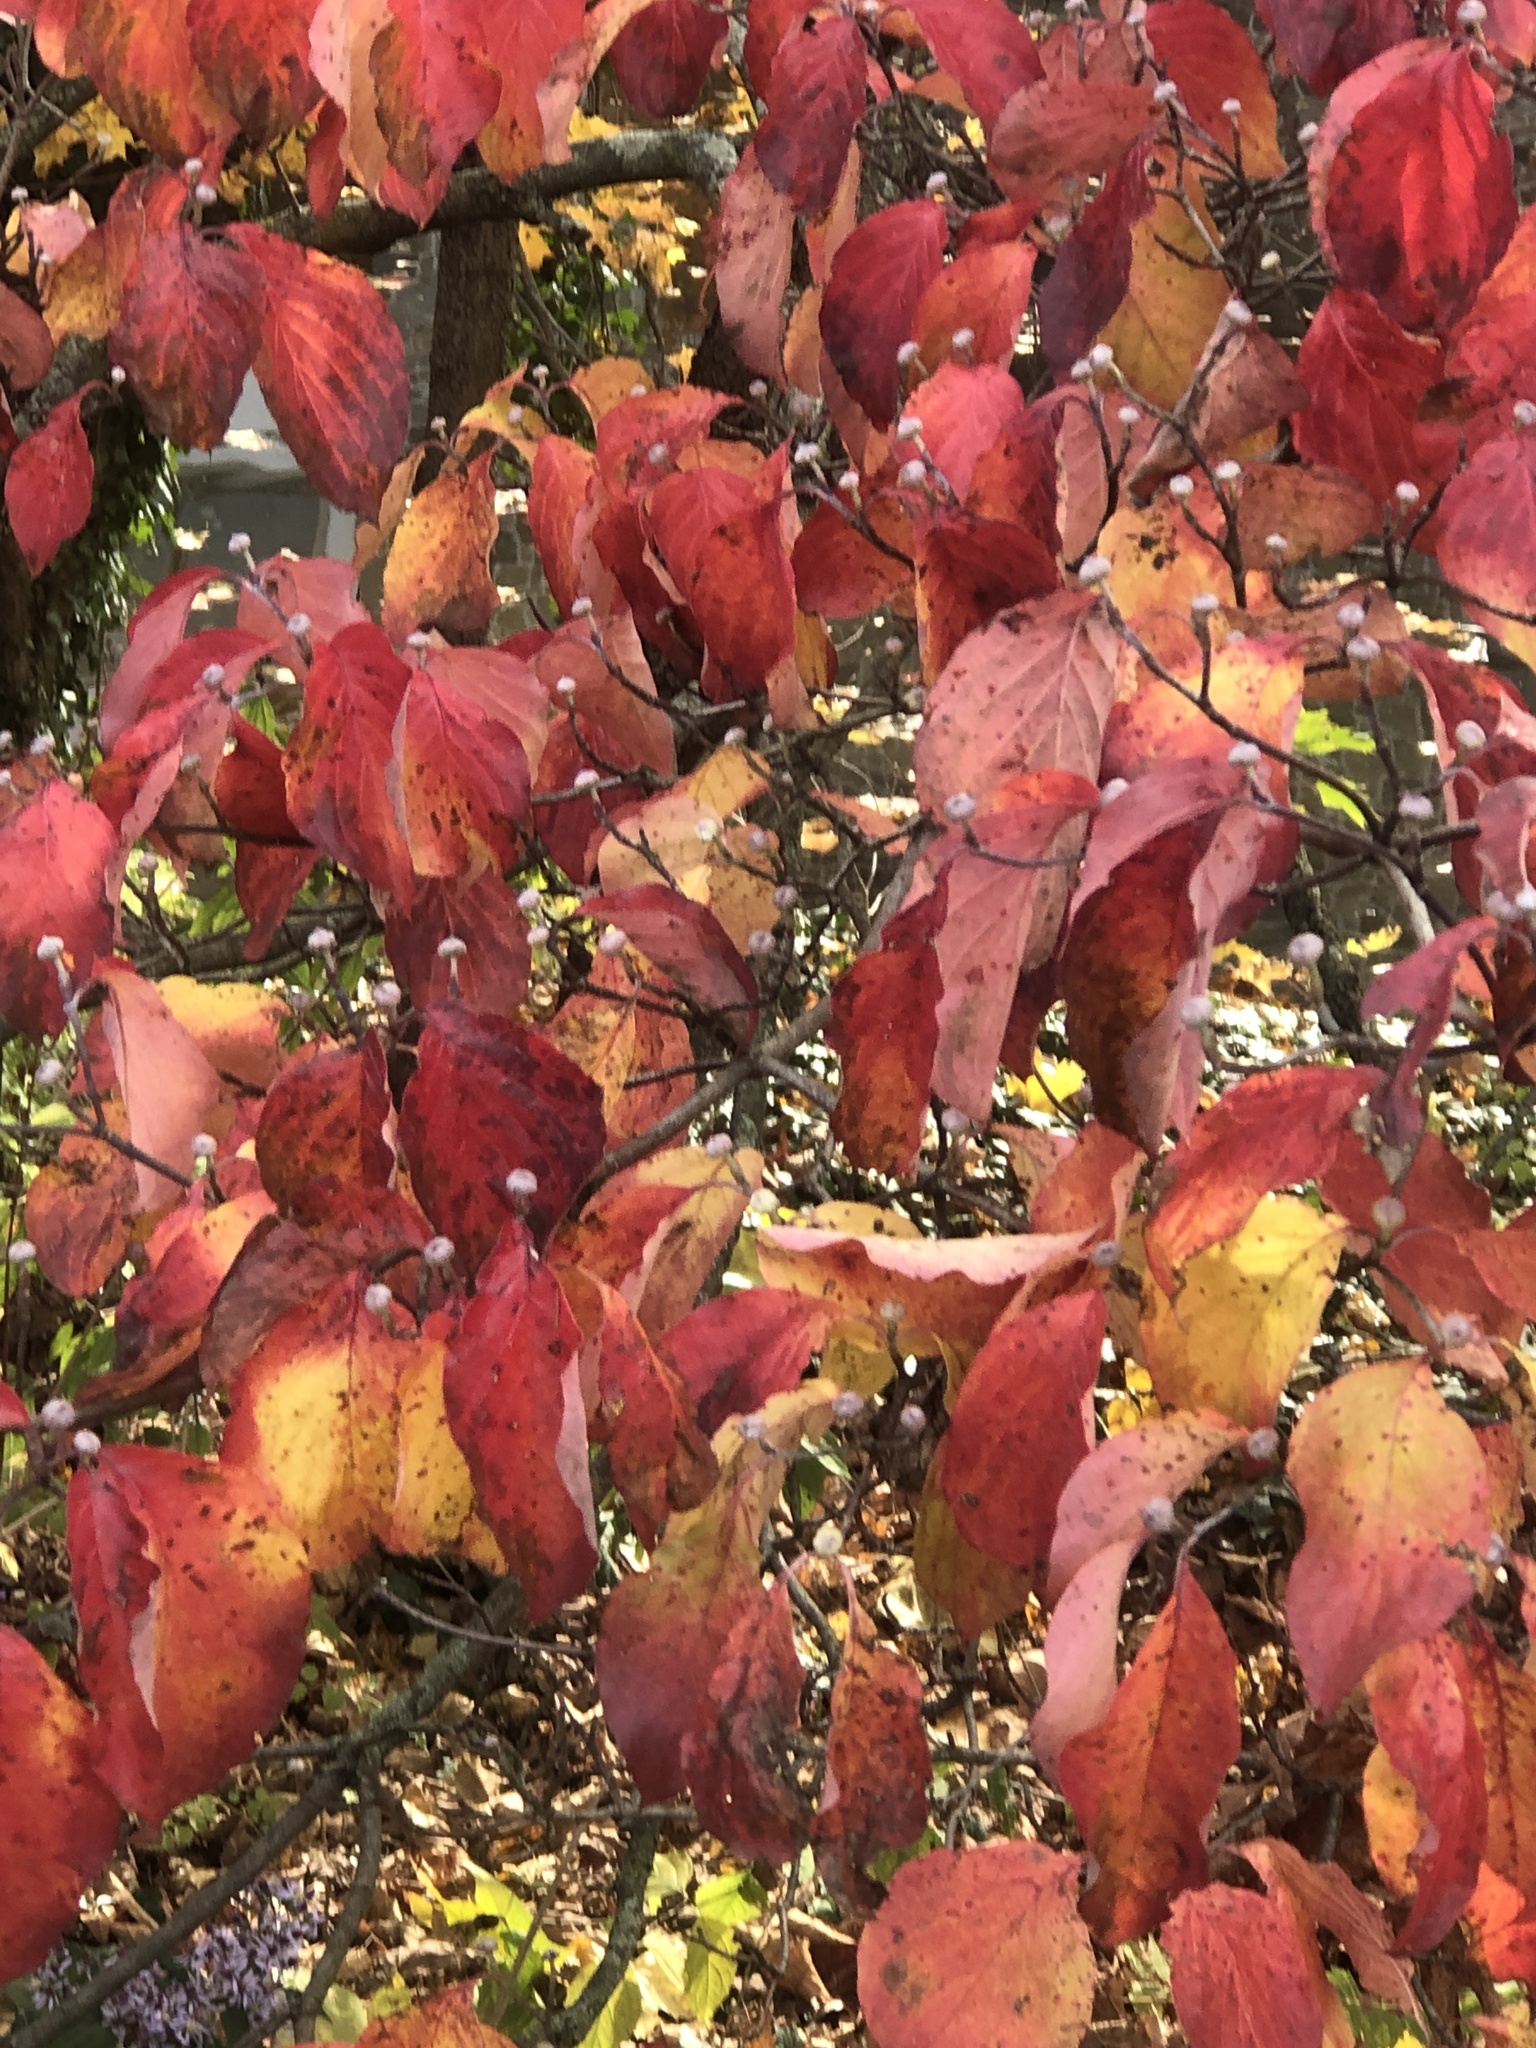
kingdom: Plantae
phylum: Tracheophyta
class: Magnoliopsida
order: Cornales
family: Cornaceae
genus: Cornus
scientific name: Cornus florida
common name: Flowering dogwood
